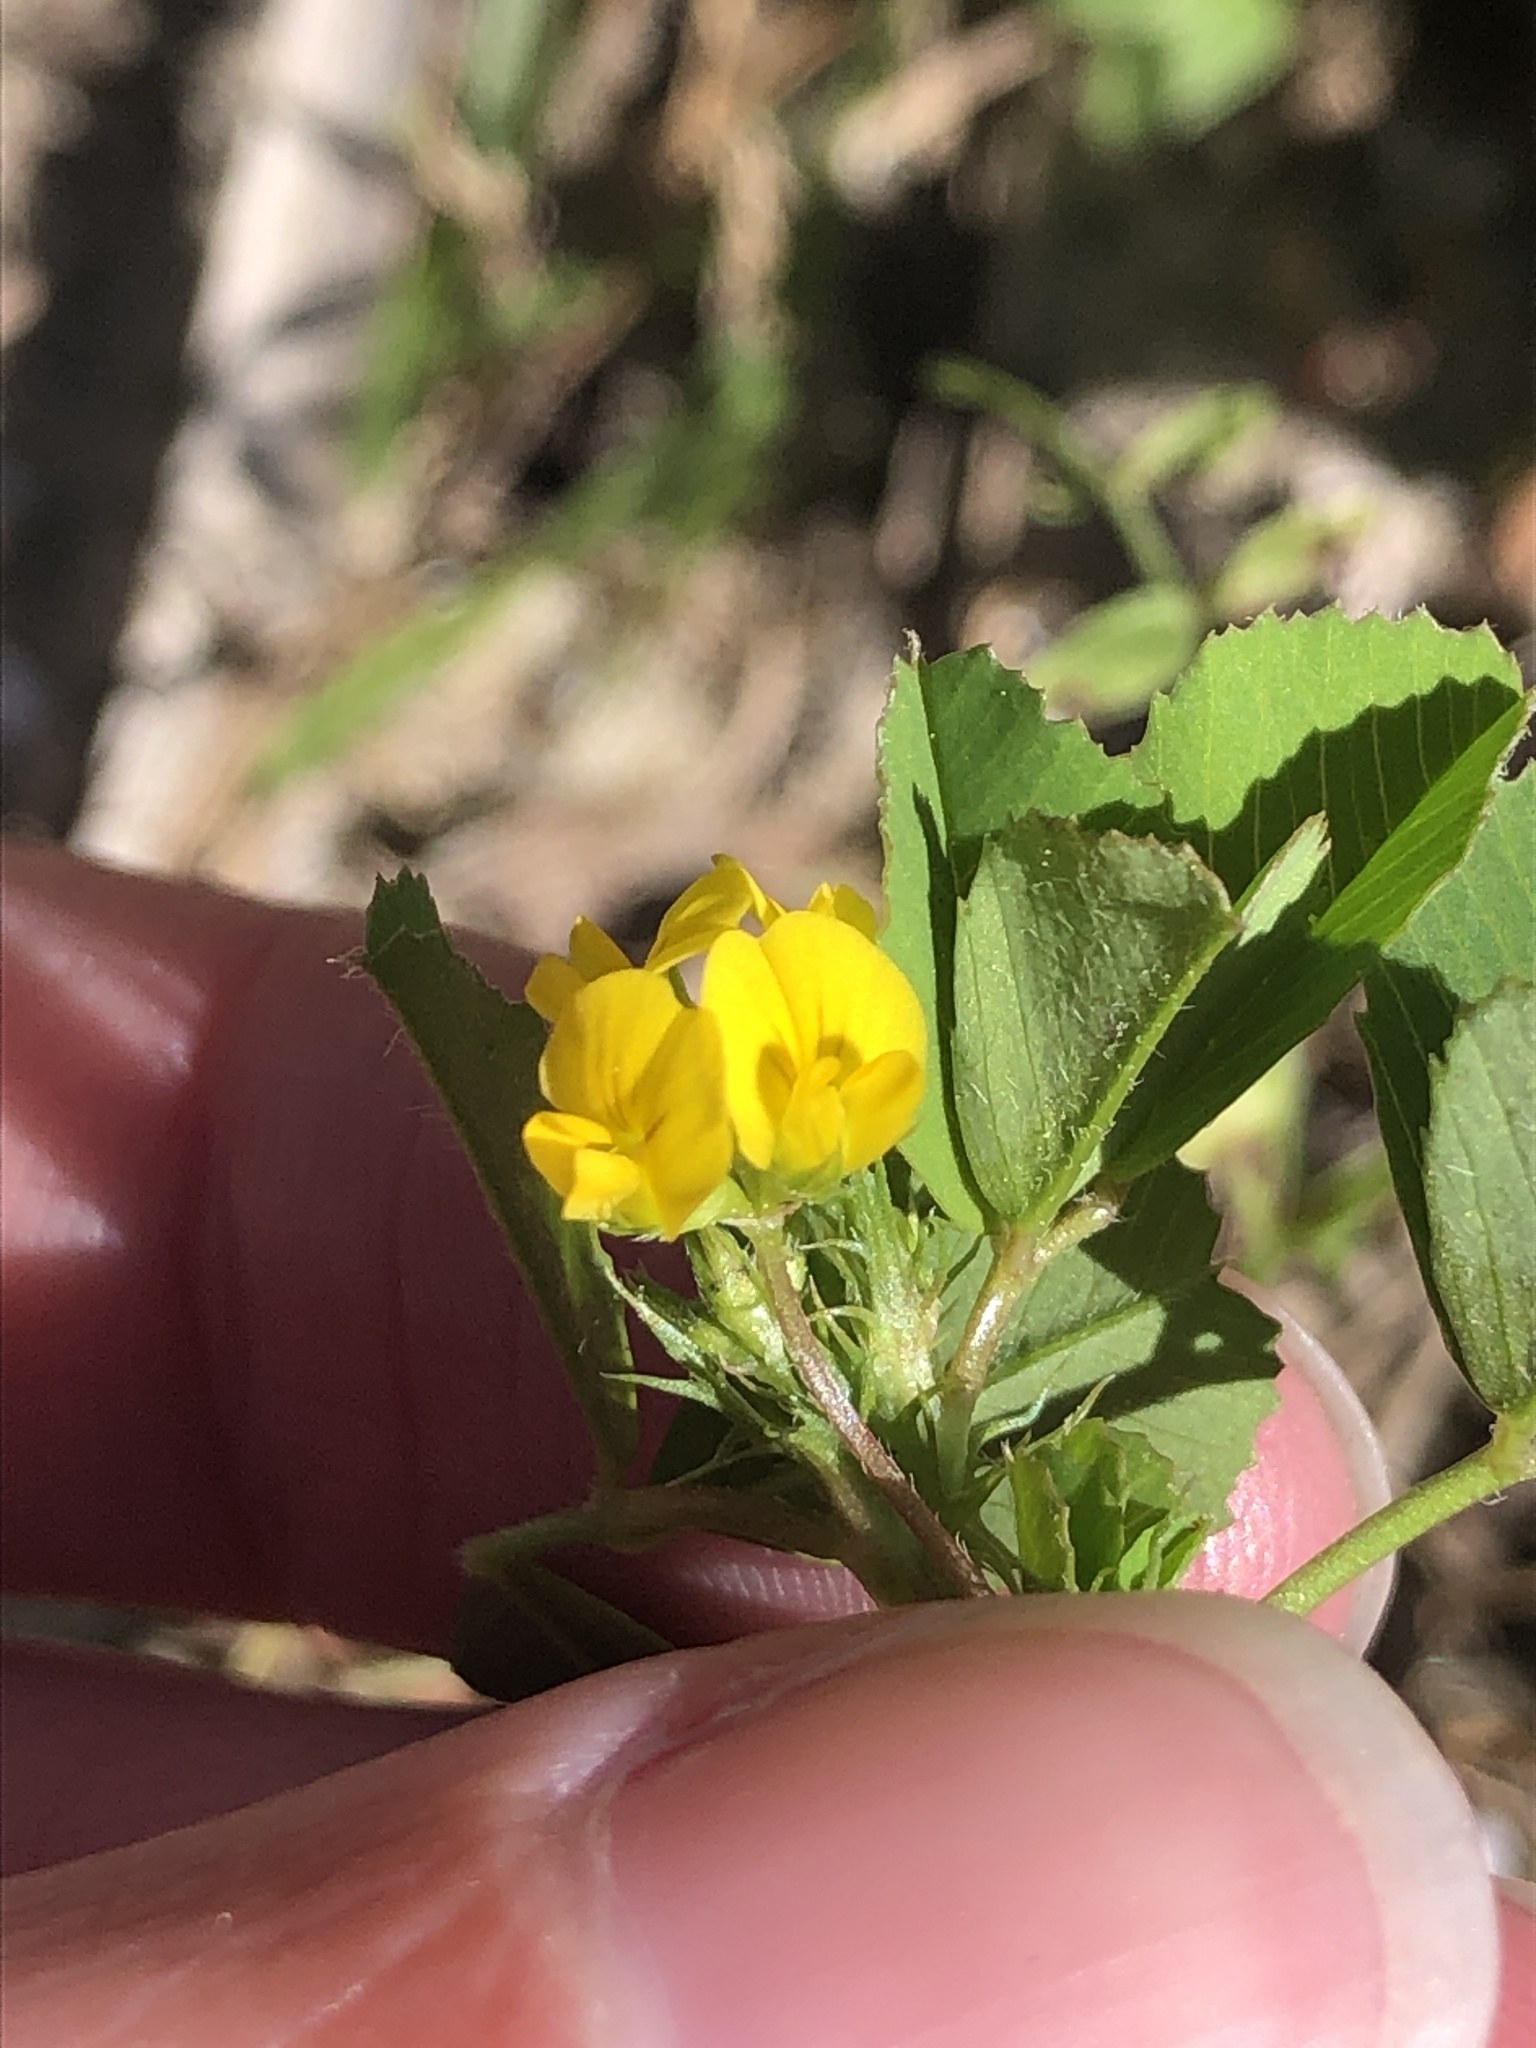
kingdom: Plantae
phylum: Tracheophyta
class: Magnoliopsida
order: Fabales
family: Fabaceae
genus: Medicago
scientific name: Medicago polymorpha
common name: Burclover
